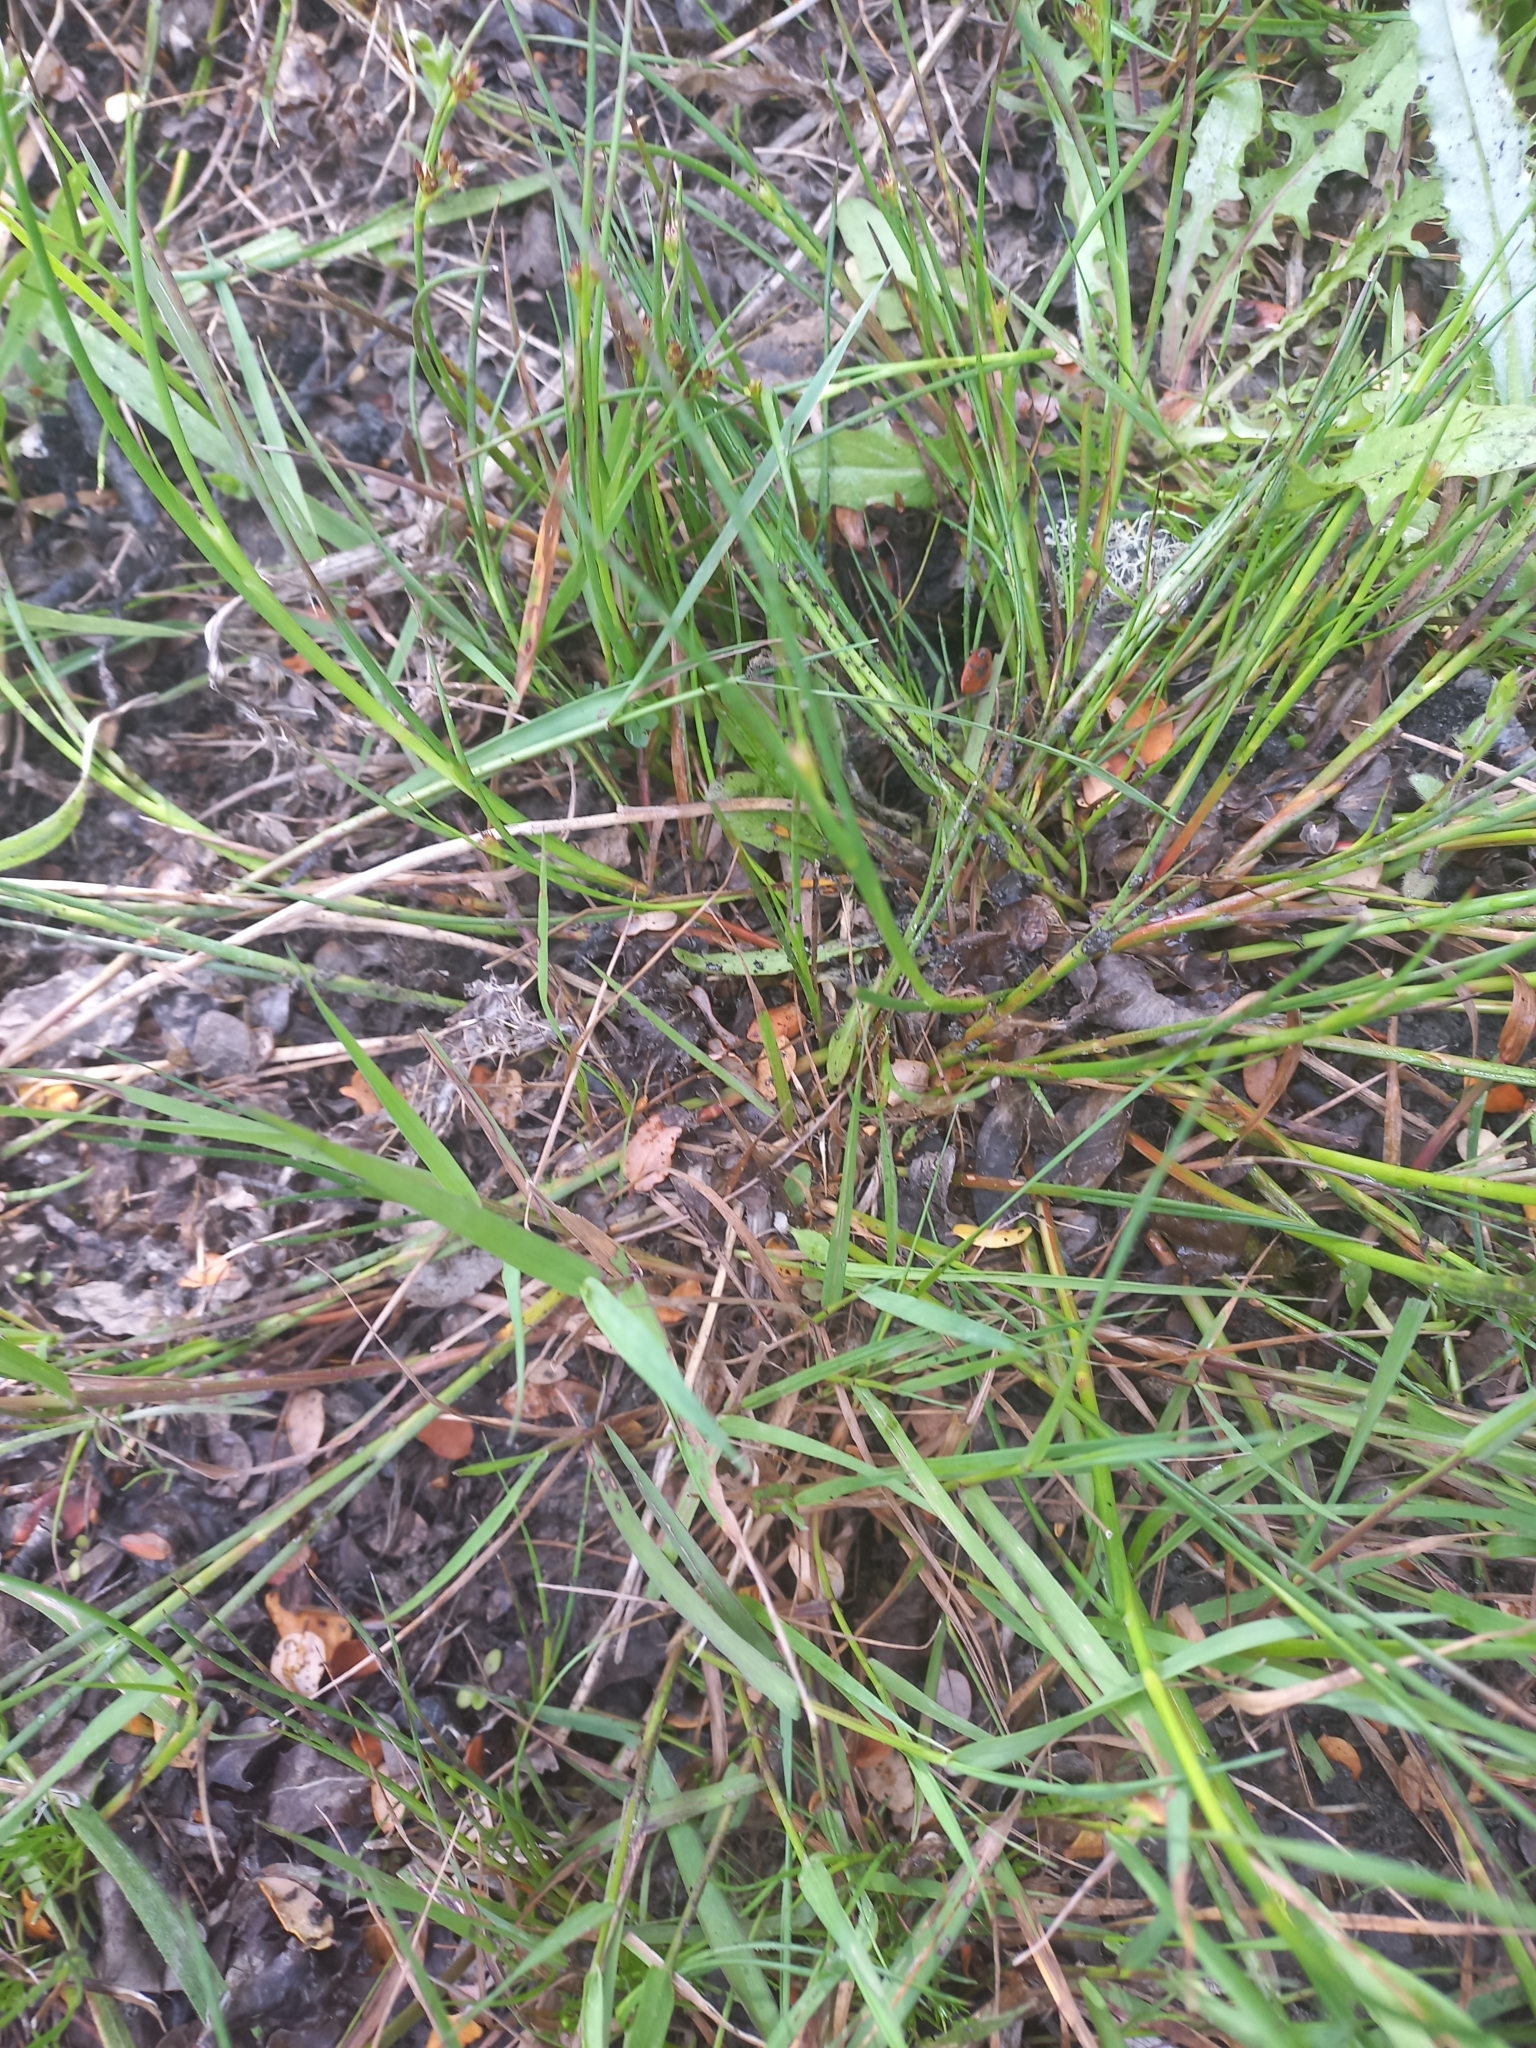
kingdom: Plantae
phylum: Tracheophyta
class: Liliopsida
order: Poales
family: Juncaceae
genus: Juncus
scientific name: Juncus articulatus
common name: Jointed rush
